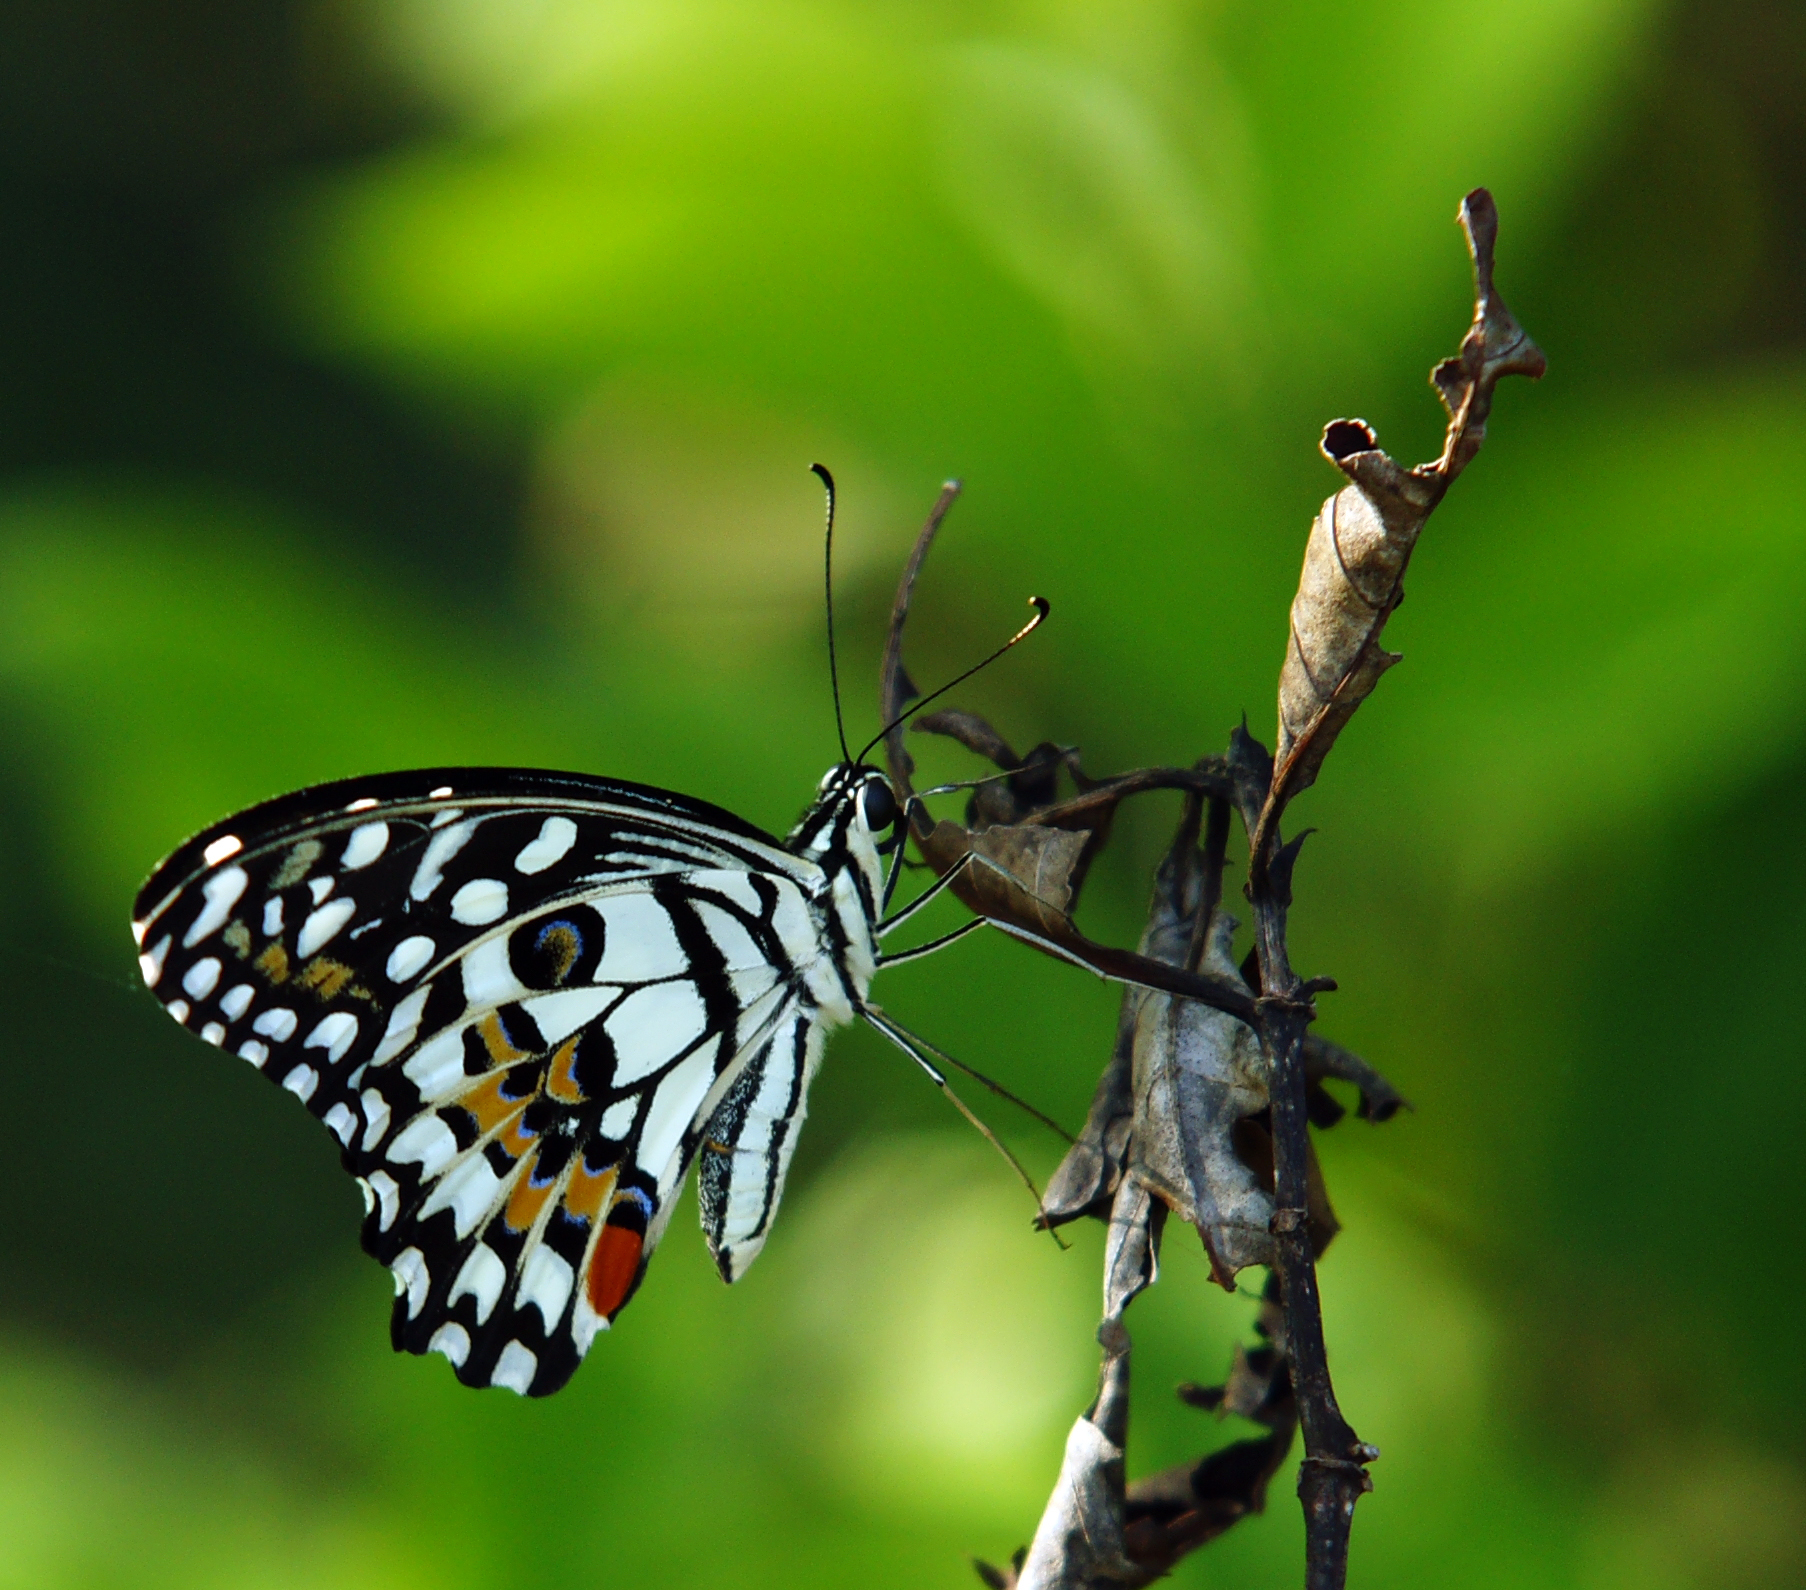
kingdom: Animalia
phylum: Arthropoda
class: Insecta
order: Lepidoptera
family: Papilionidae
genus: Papilio
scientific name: Papilio demoleus
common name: Lime butterfly
